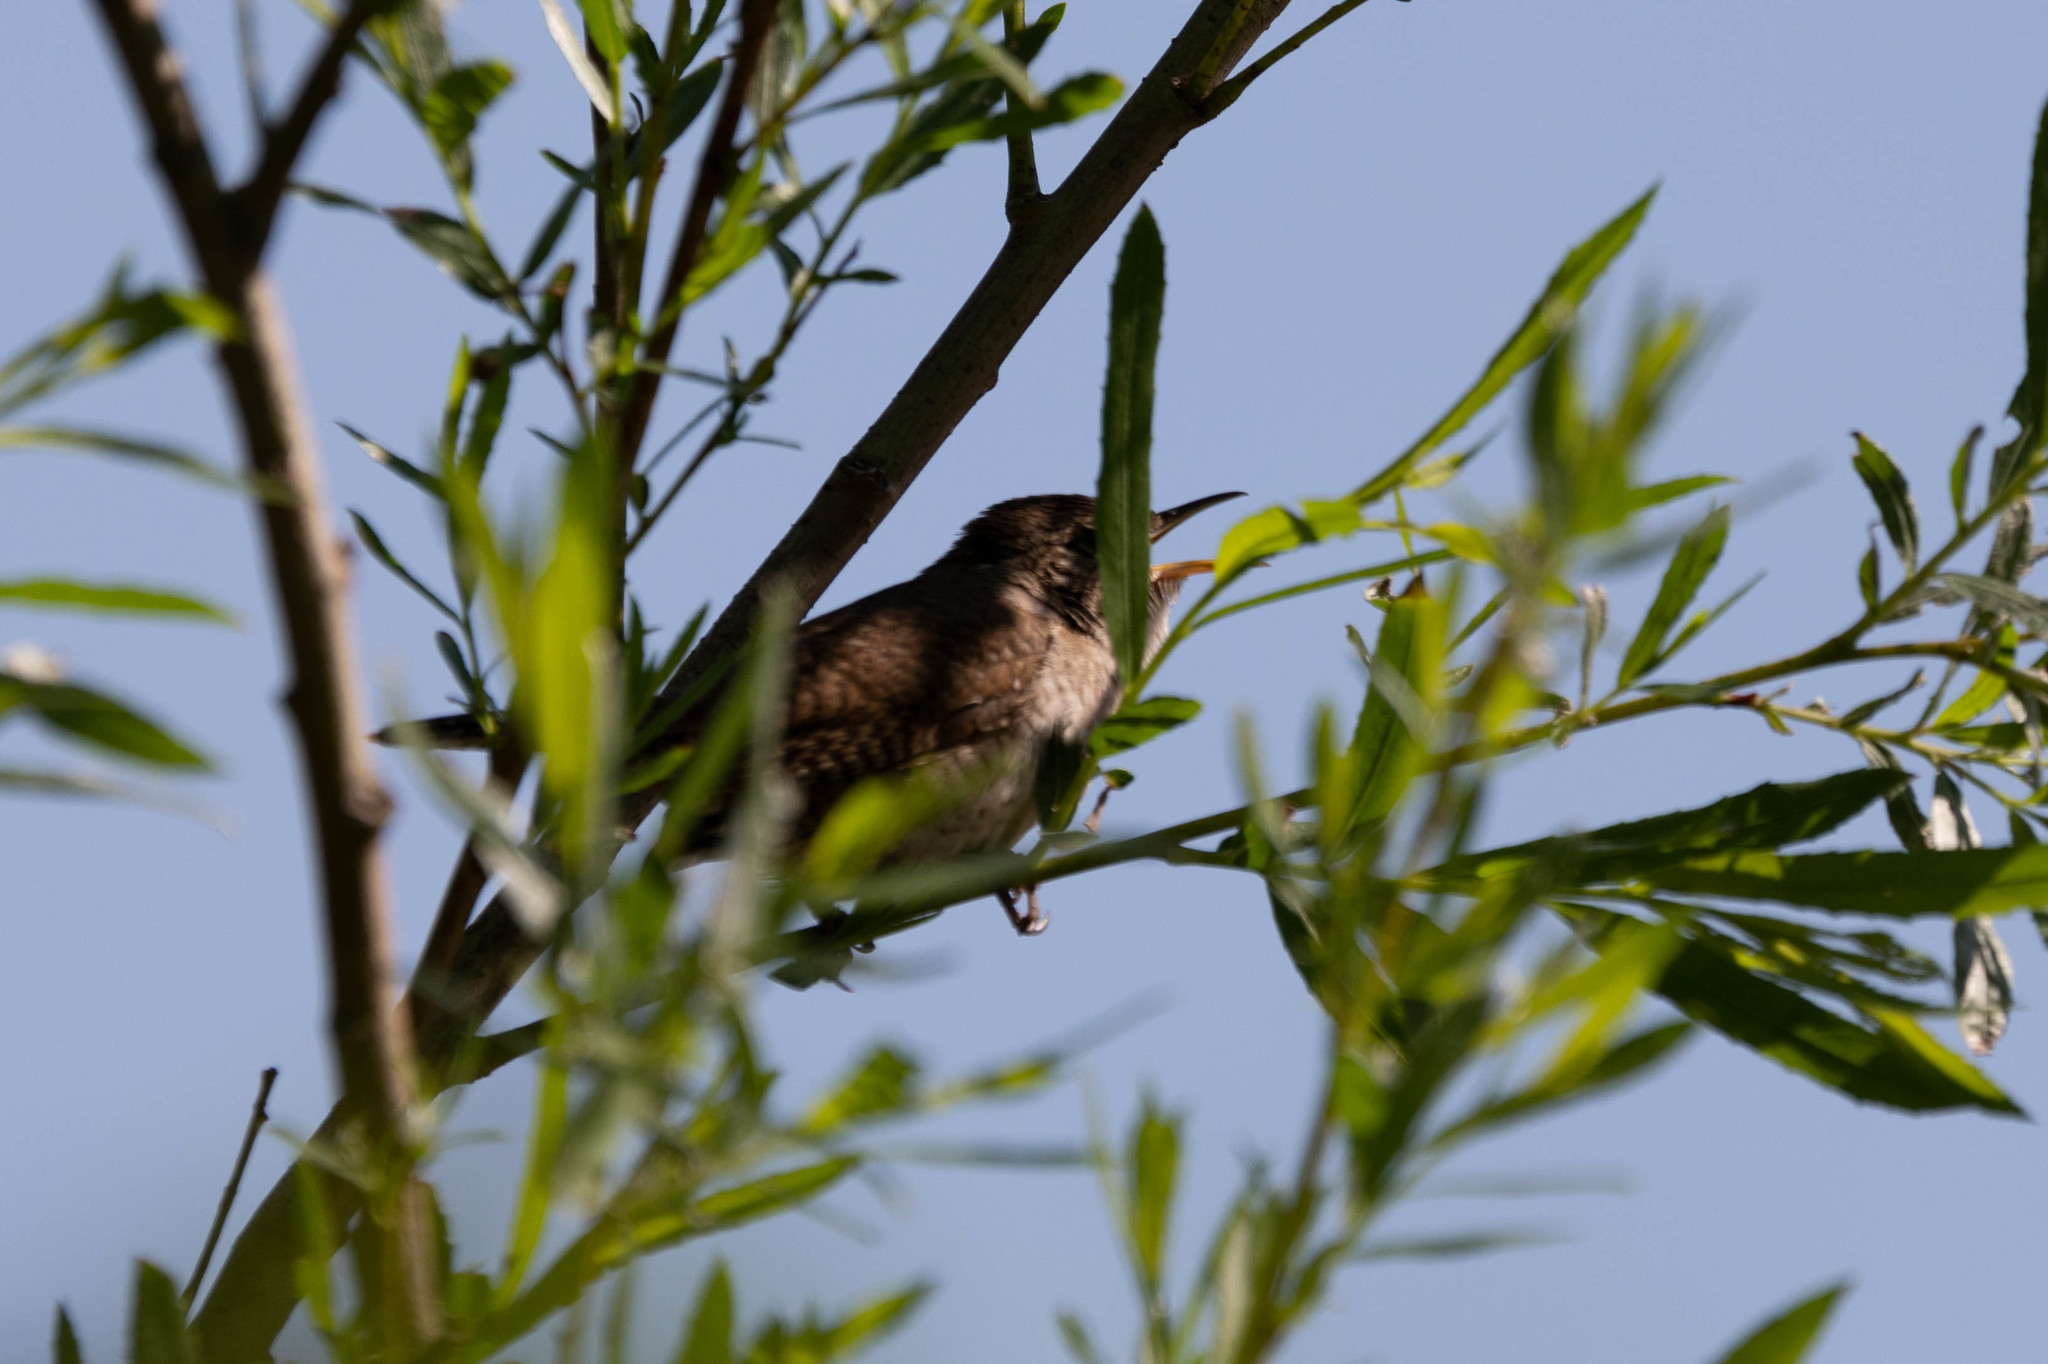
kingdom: Animalia
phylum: Chordata
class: Aves
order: Passeriformes
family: Troglodytidae
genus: Troglodytes
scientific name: Troglodytes aedon
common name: House wren
